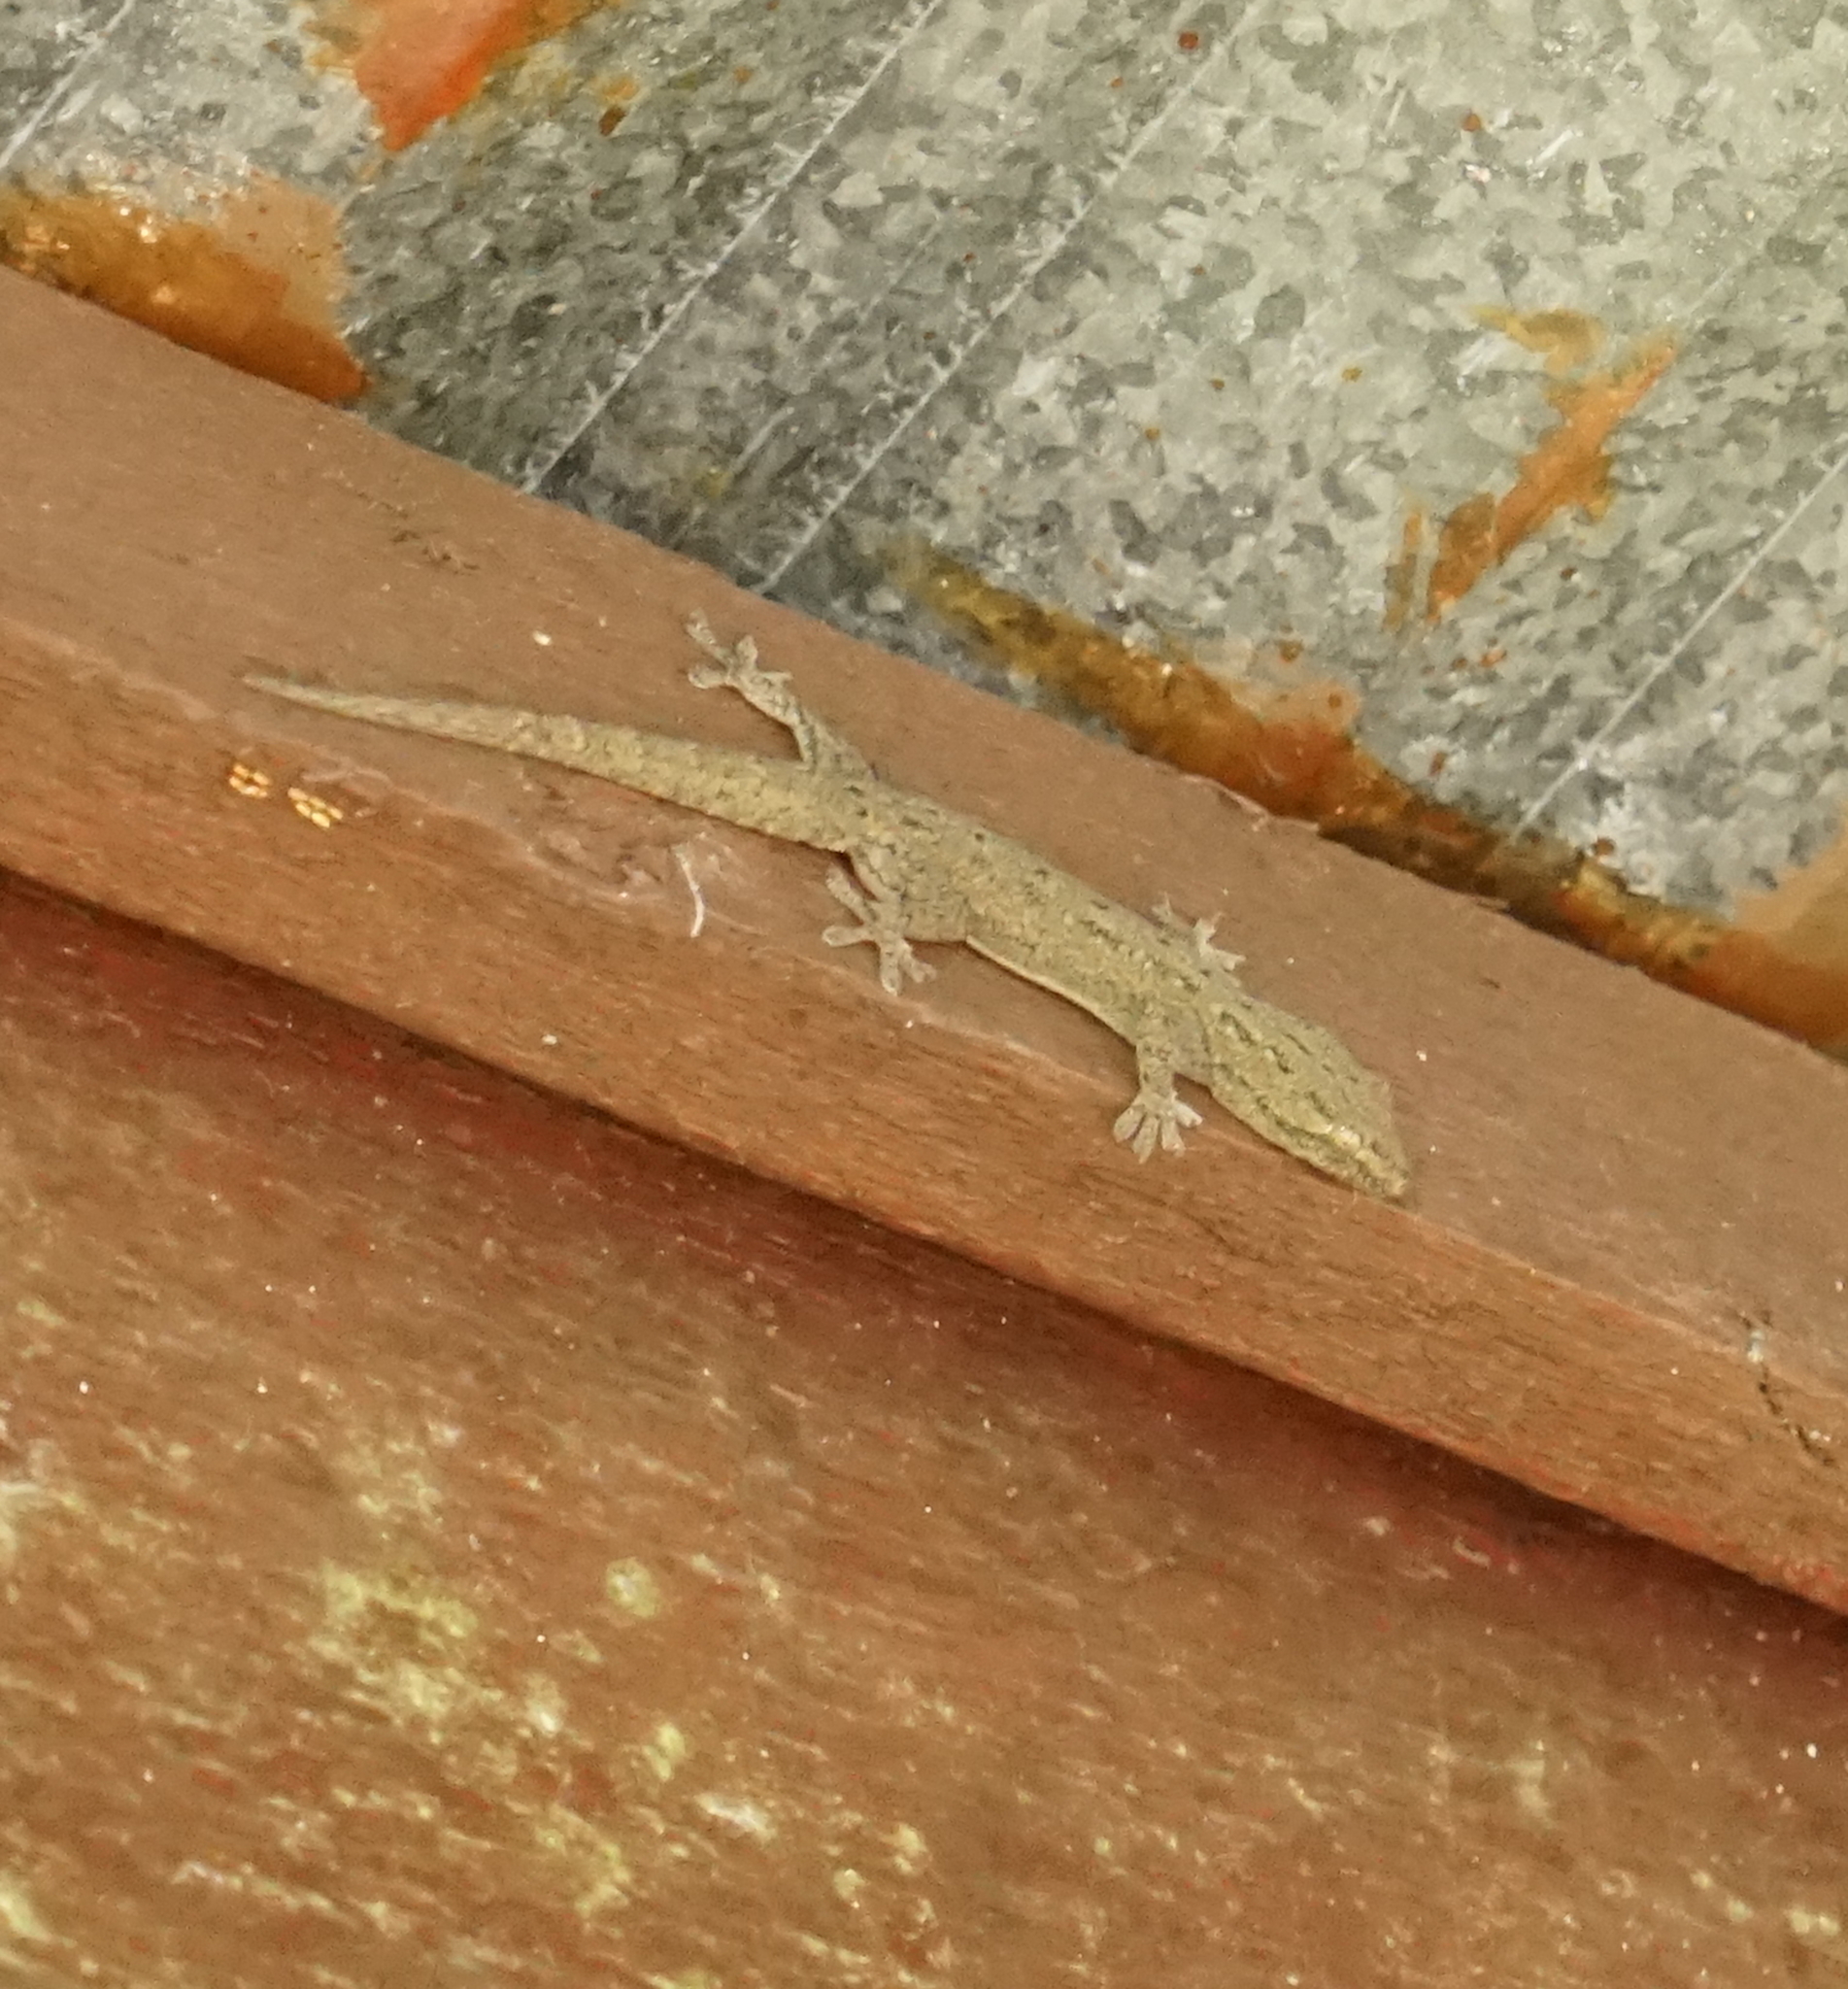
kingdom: Animalia
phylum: Chordata
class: Squamata
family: Gekkonidae
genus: Hemidactylus
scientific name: Hemidactylus frenatus
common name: Common house gecko
